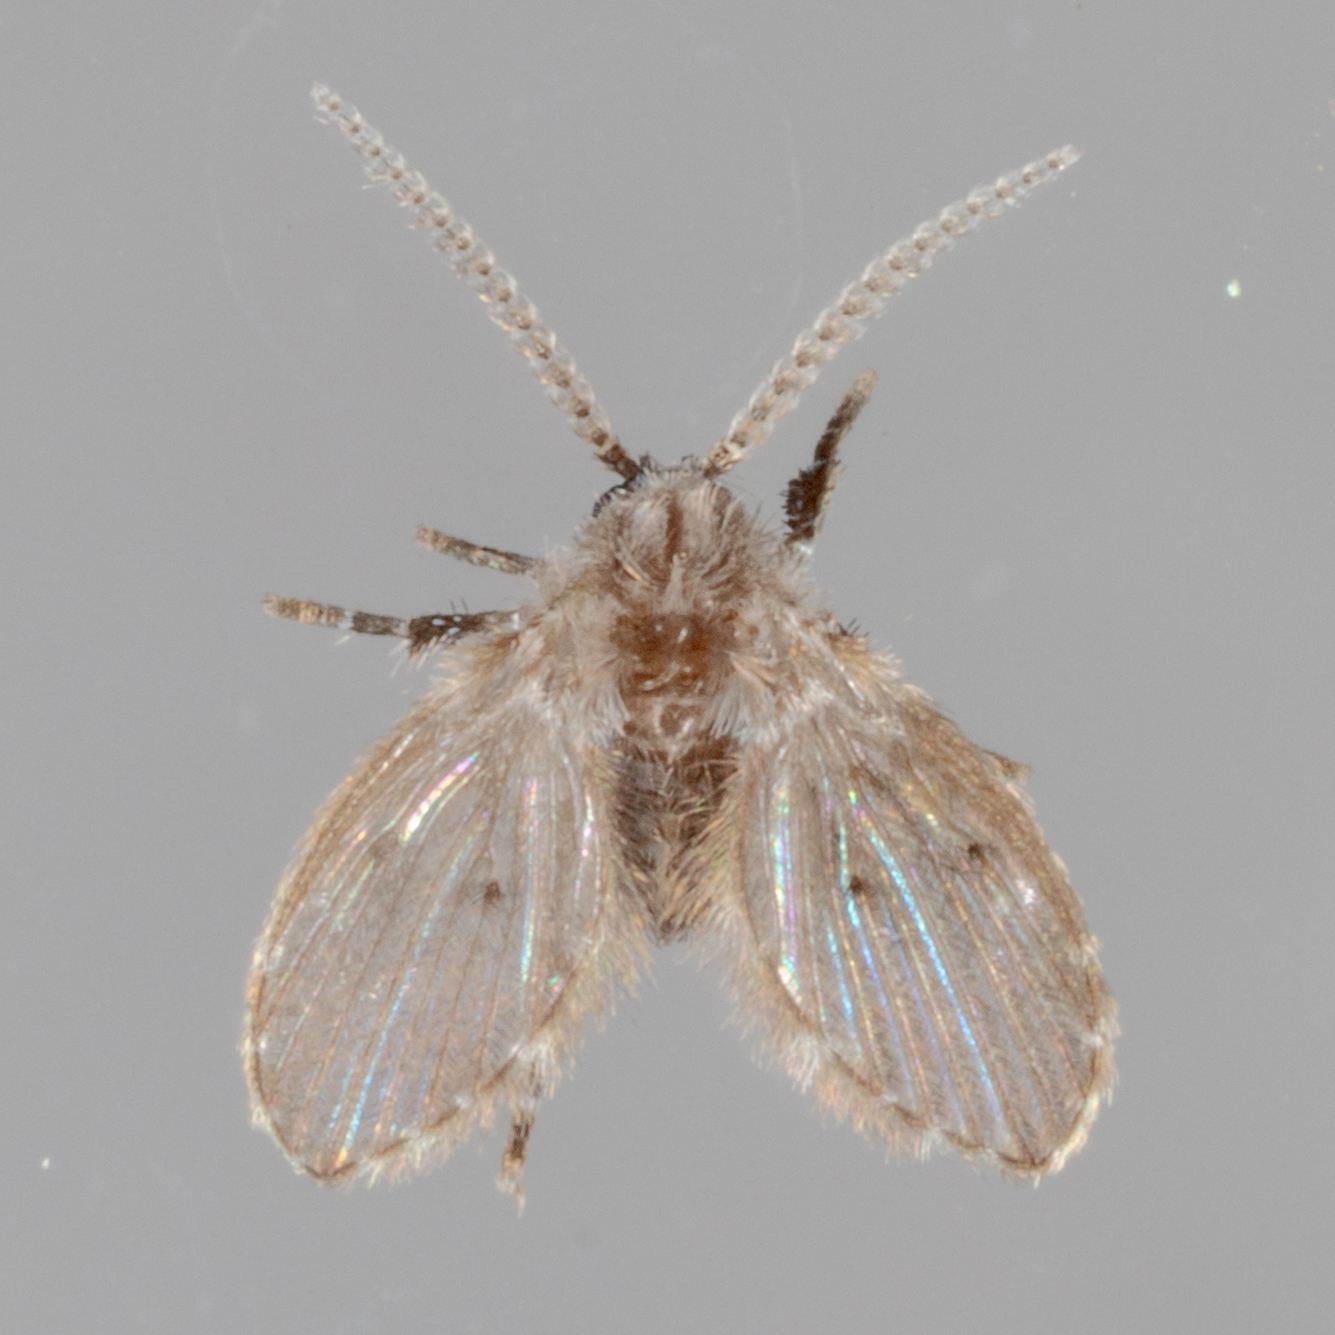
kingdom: Animalia
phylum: Arthropoda
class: Insecta
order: Diptera
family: Psychodidae
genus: Clogmia
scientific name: Clogmia albipunctatus
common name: White-spotted moth fly
